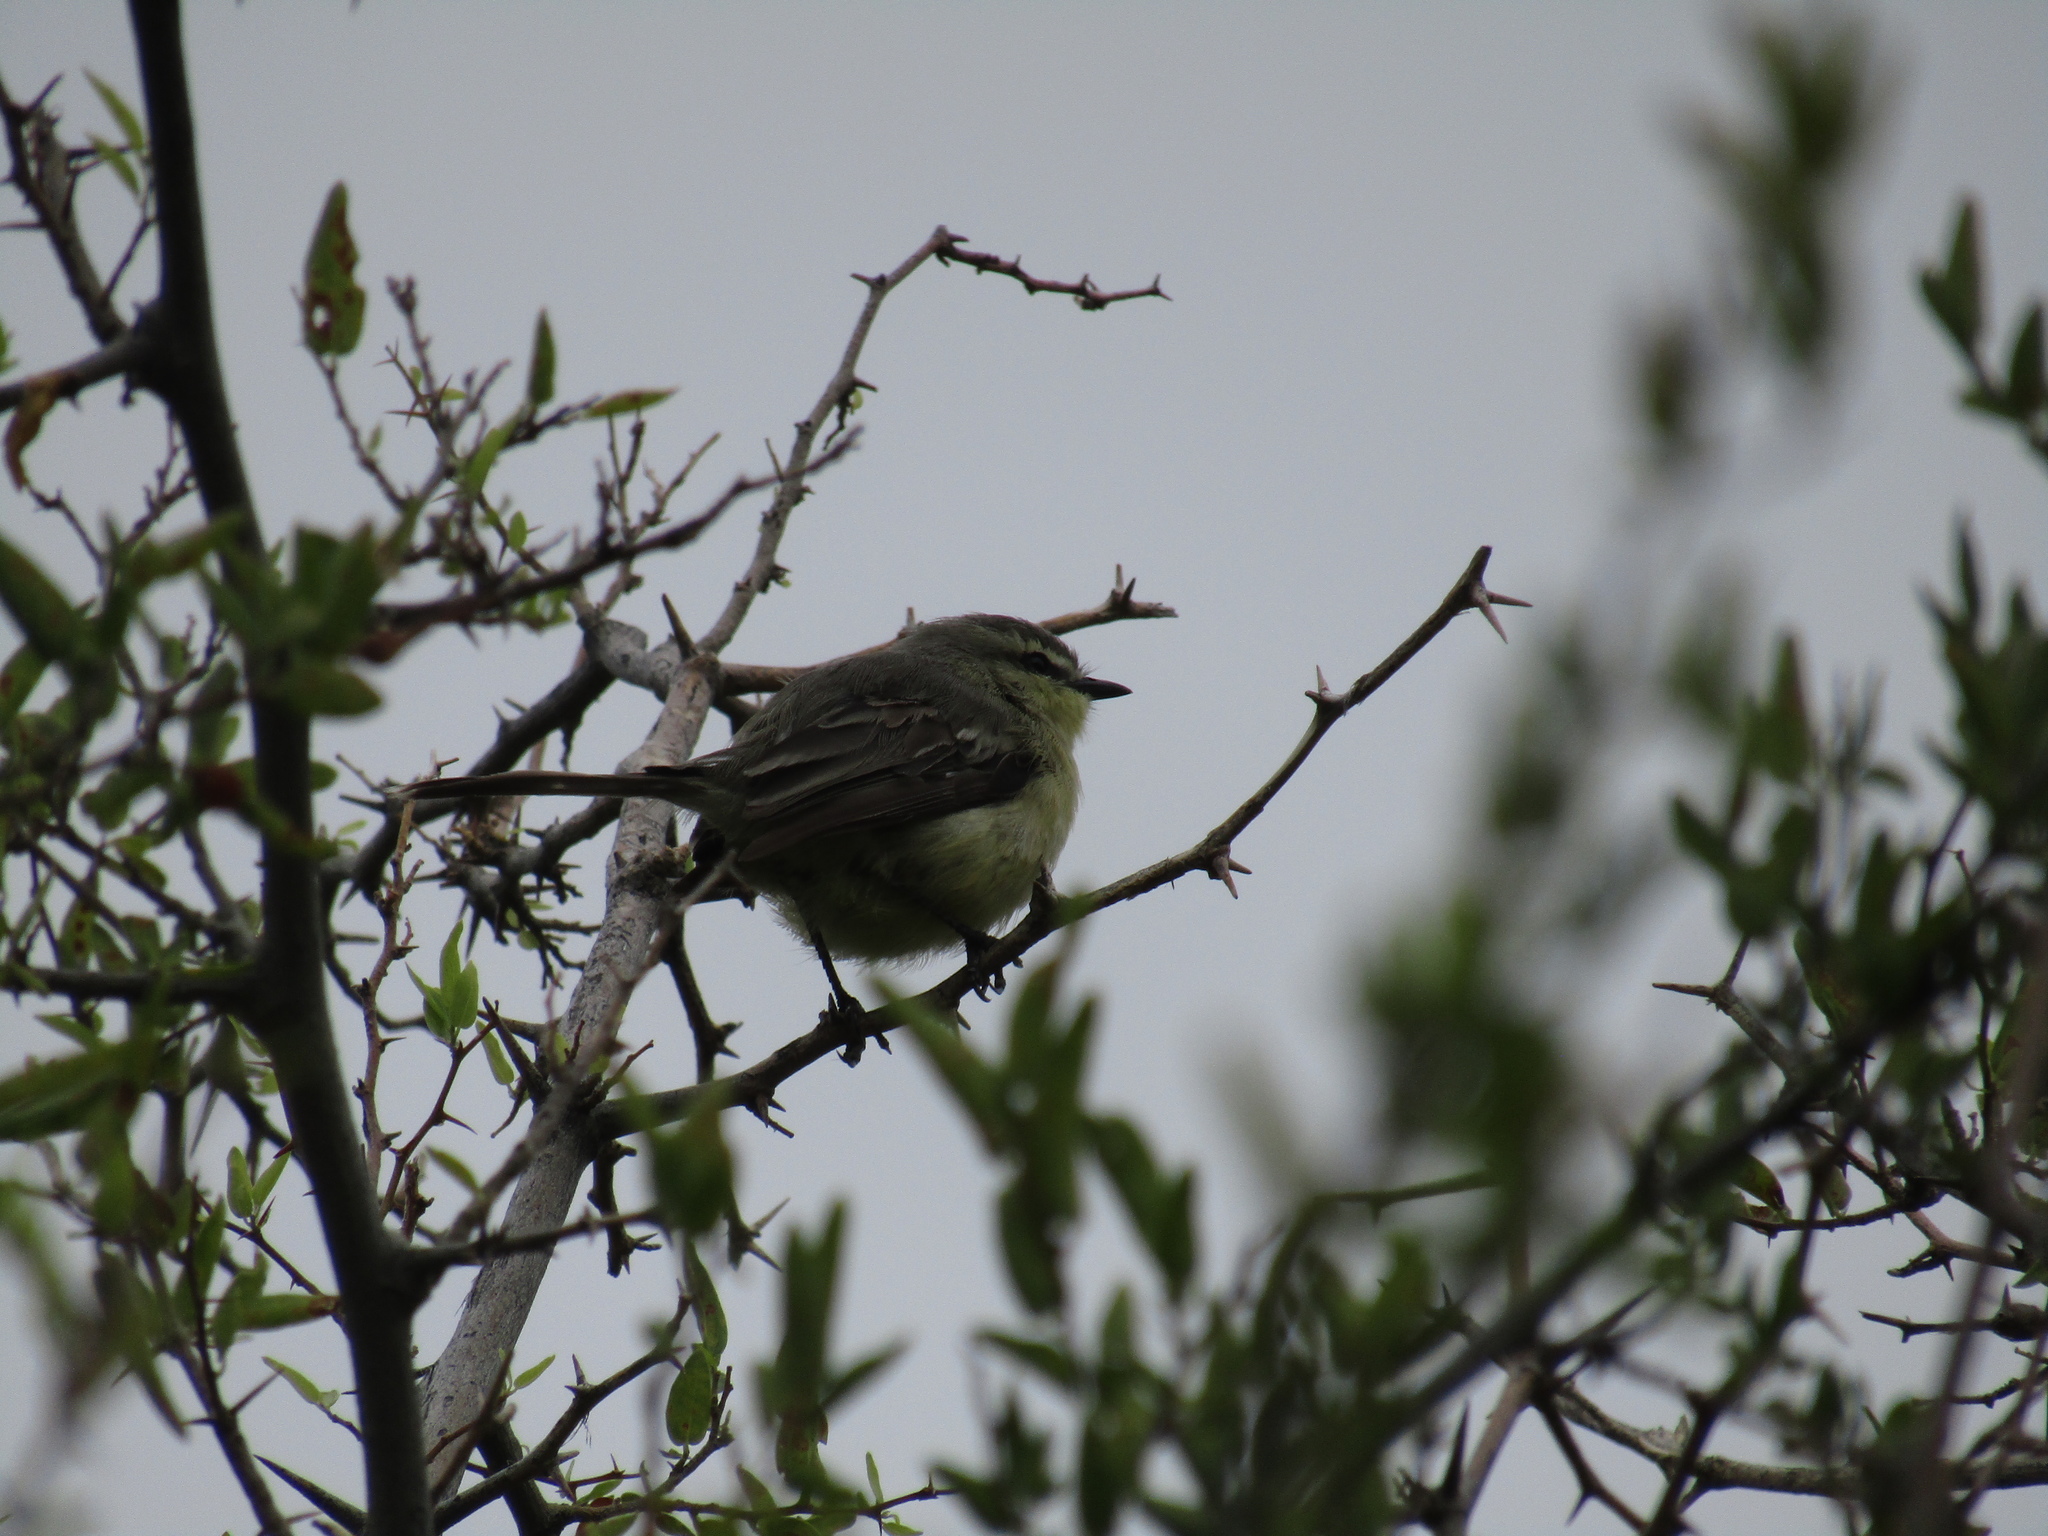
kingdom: Animalia
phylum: Chordata
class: Aves
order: Passeriformes
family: Tyrannidae
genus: Stigmatura
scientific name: Stigmatura budytoides
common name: Greater wagtail-tyrant
